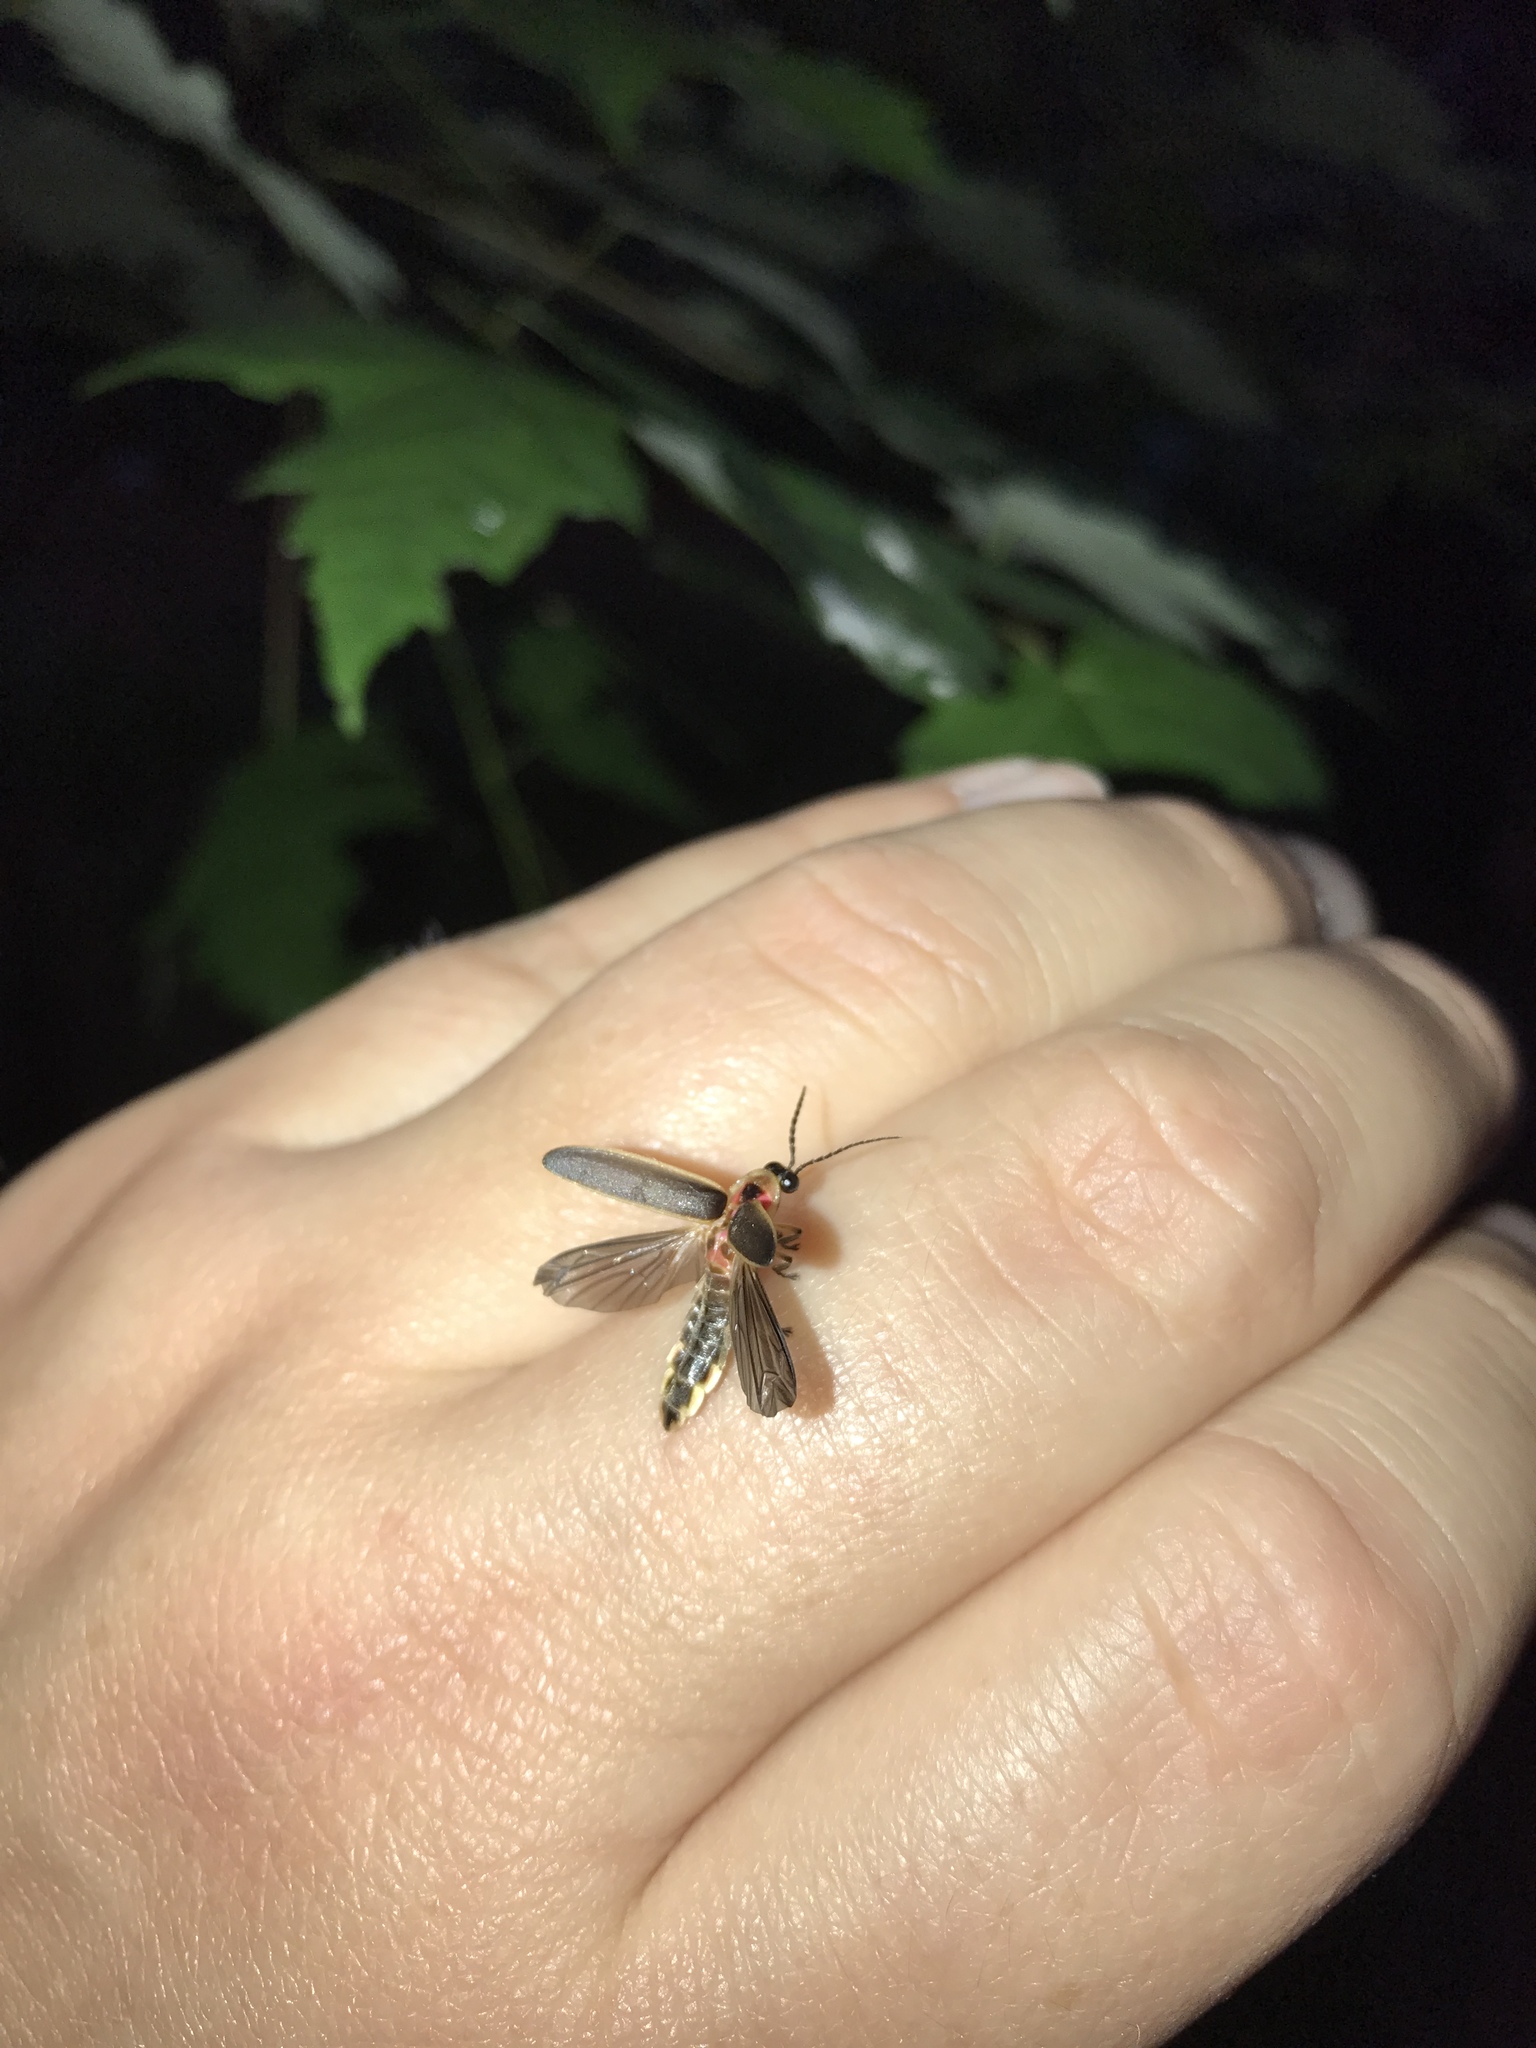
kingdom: Animalia
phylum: Arthropoda
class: Insecta
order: Coleoptera
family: Lampyridae
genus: Photinus
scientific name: Photinus pyralis
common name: Big dipper firefly
